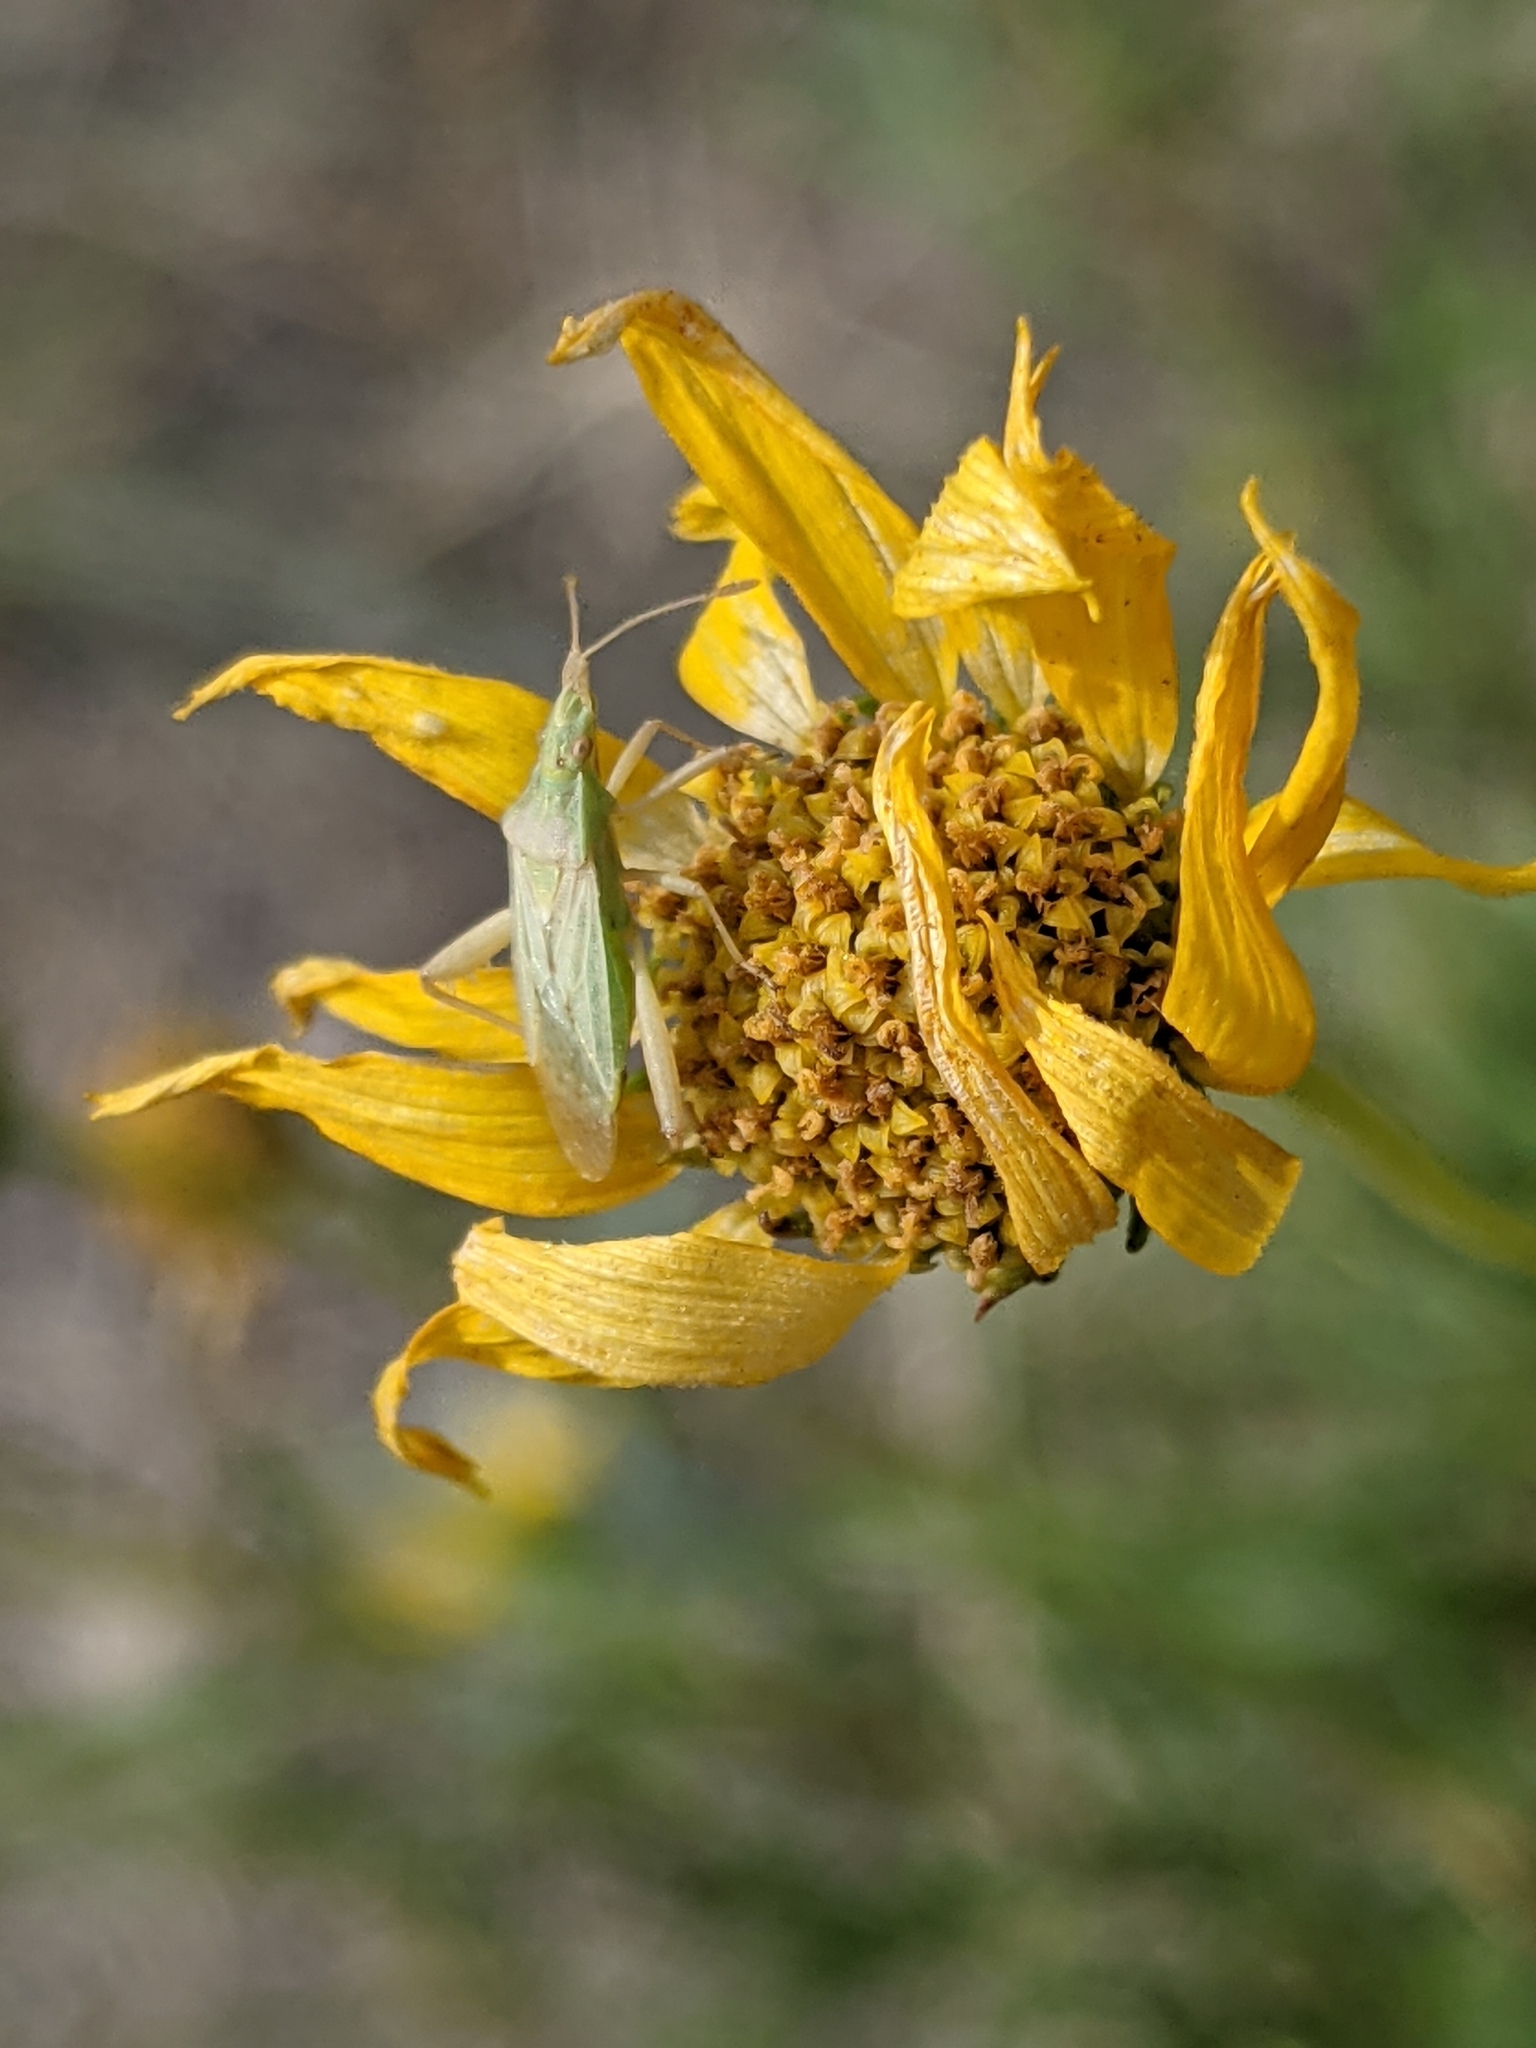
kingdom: Animalia
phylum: Arthropoda
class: Insecta
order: Hemiptera
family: Rhopalidae
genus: Harmostes
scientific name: Harmostes reflexulus
